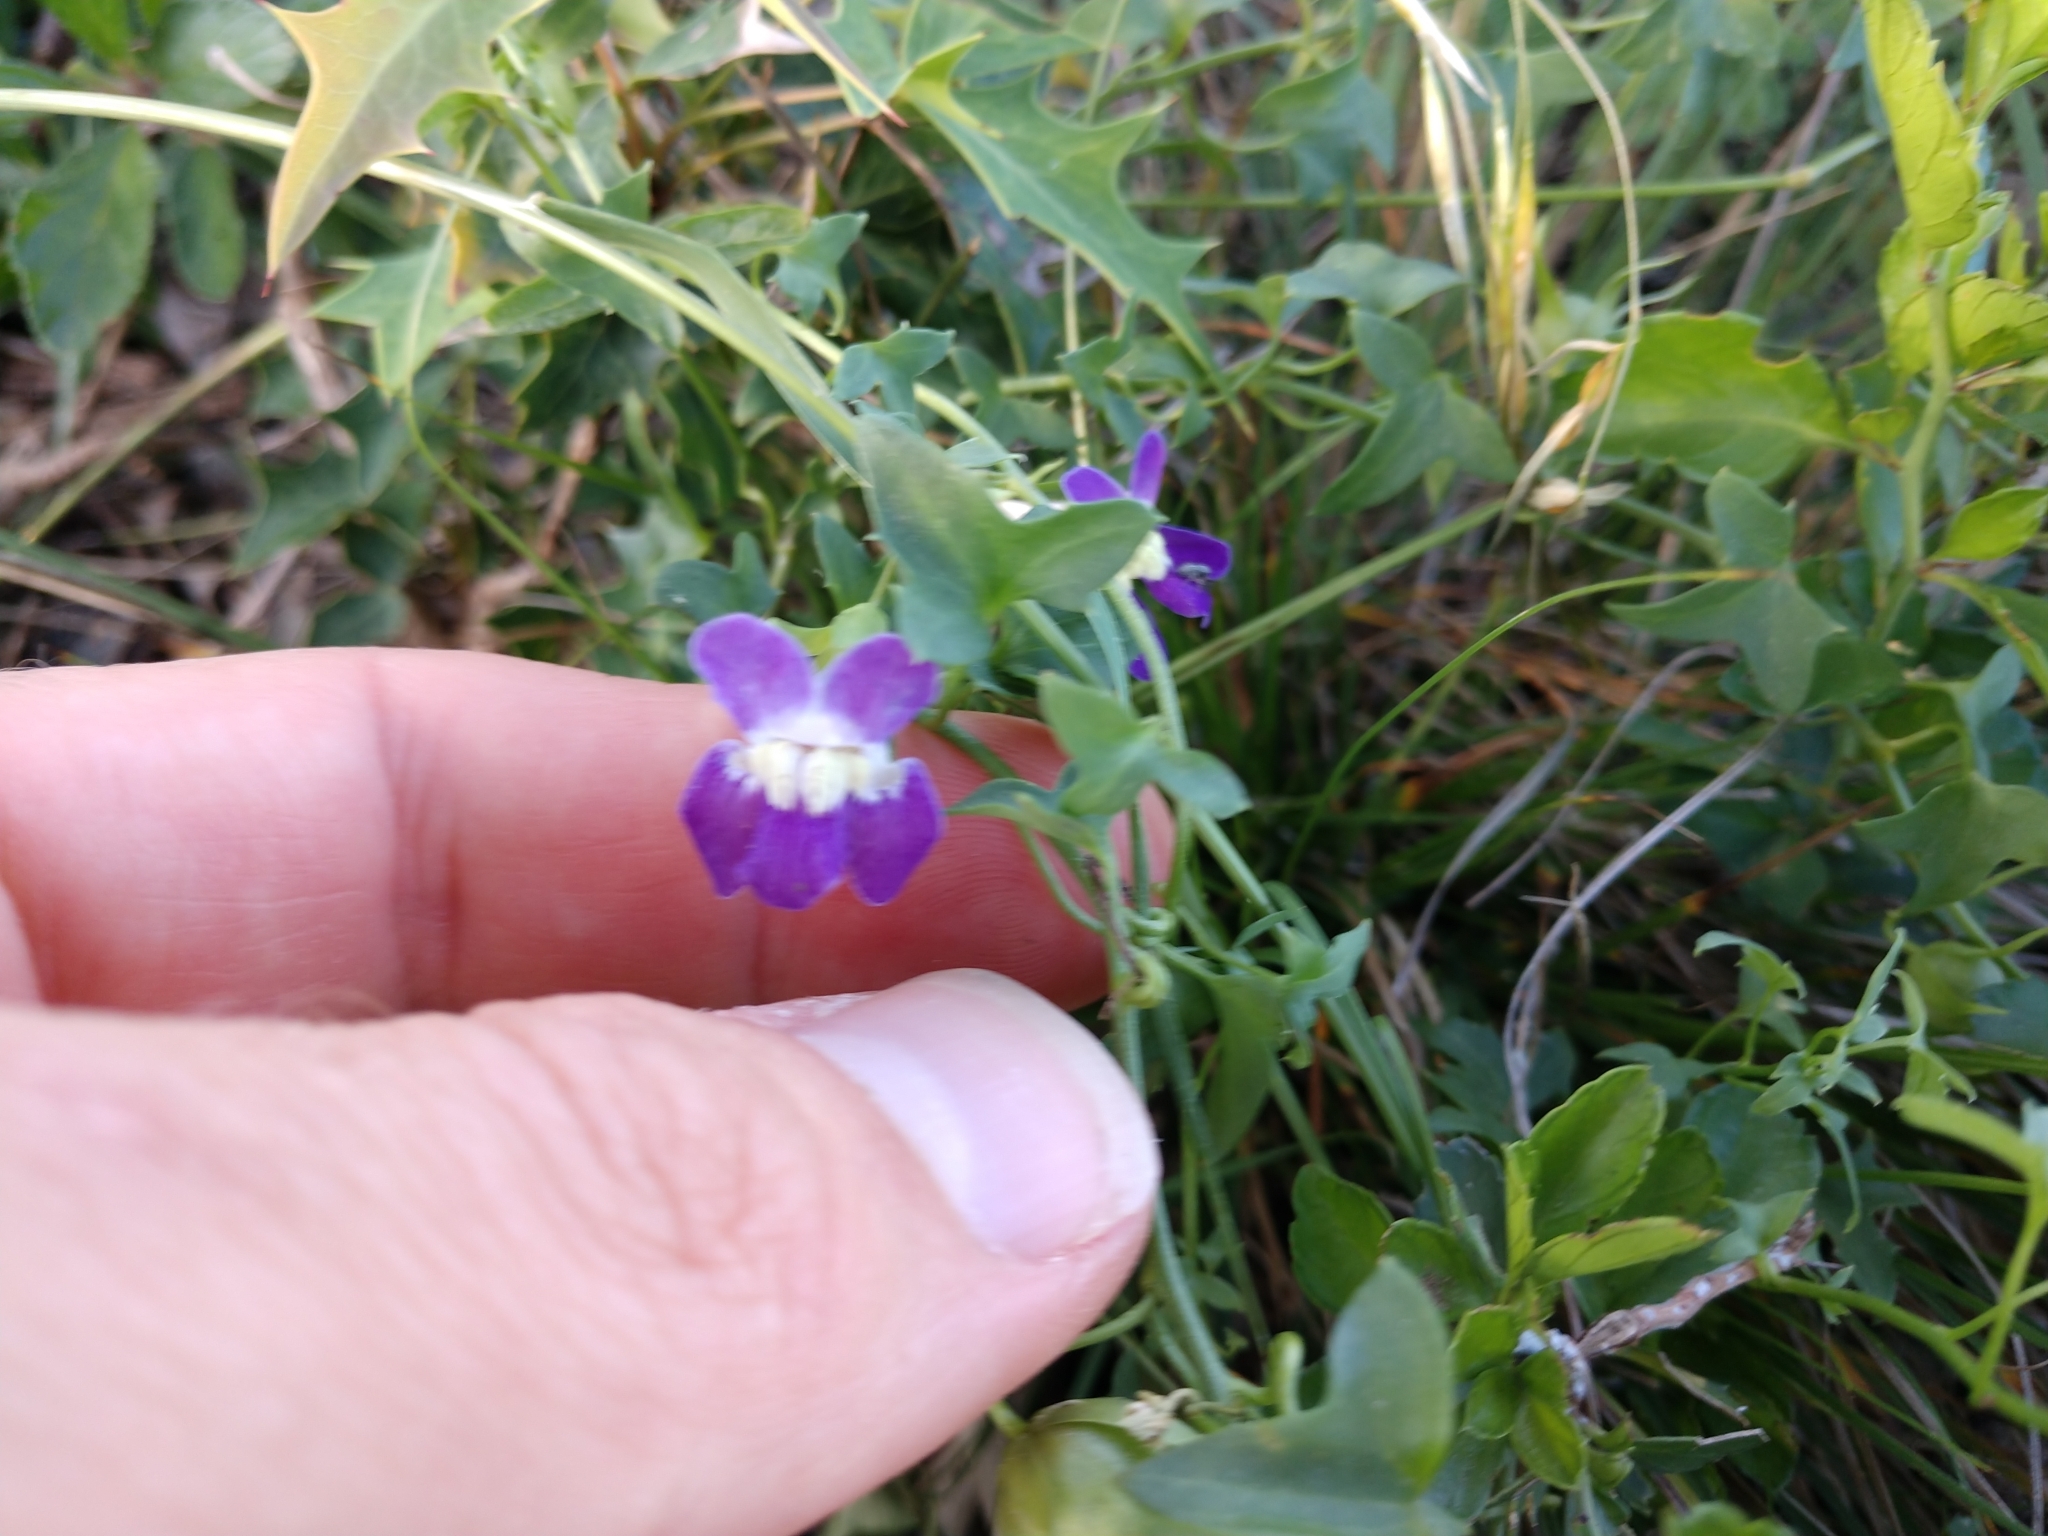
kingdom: Plantae
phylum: Tracheophyta
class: Magnoliopsida
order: Lamiales
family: Plantaginaceae
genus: Maurandella
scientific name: Maurandella antirrhiniflora
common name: Violet twining-snapdragon
